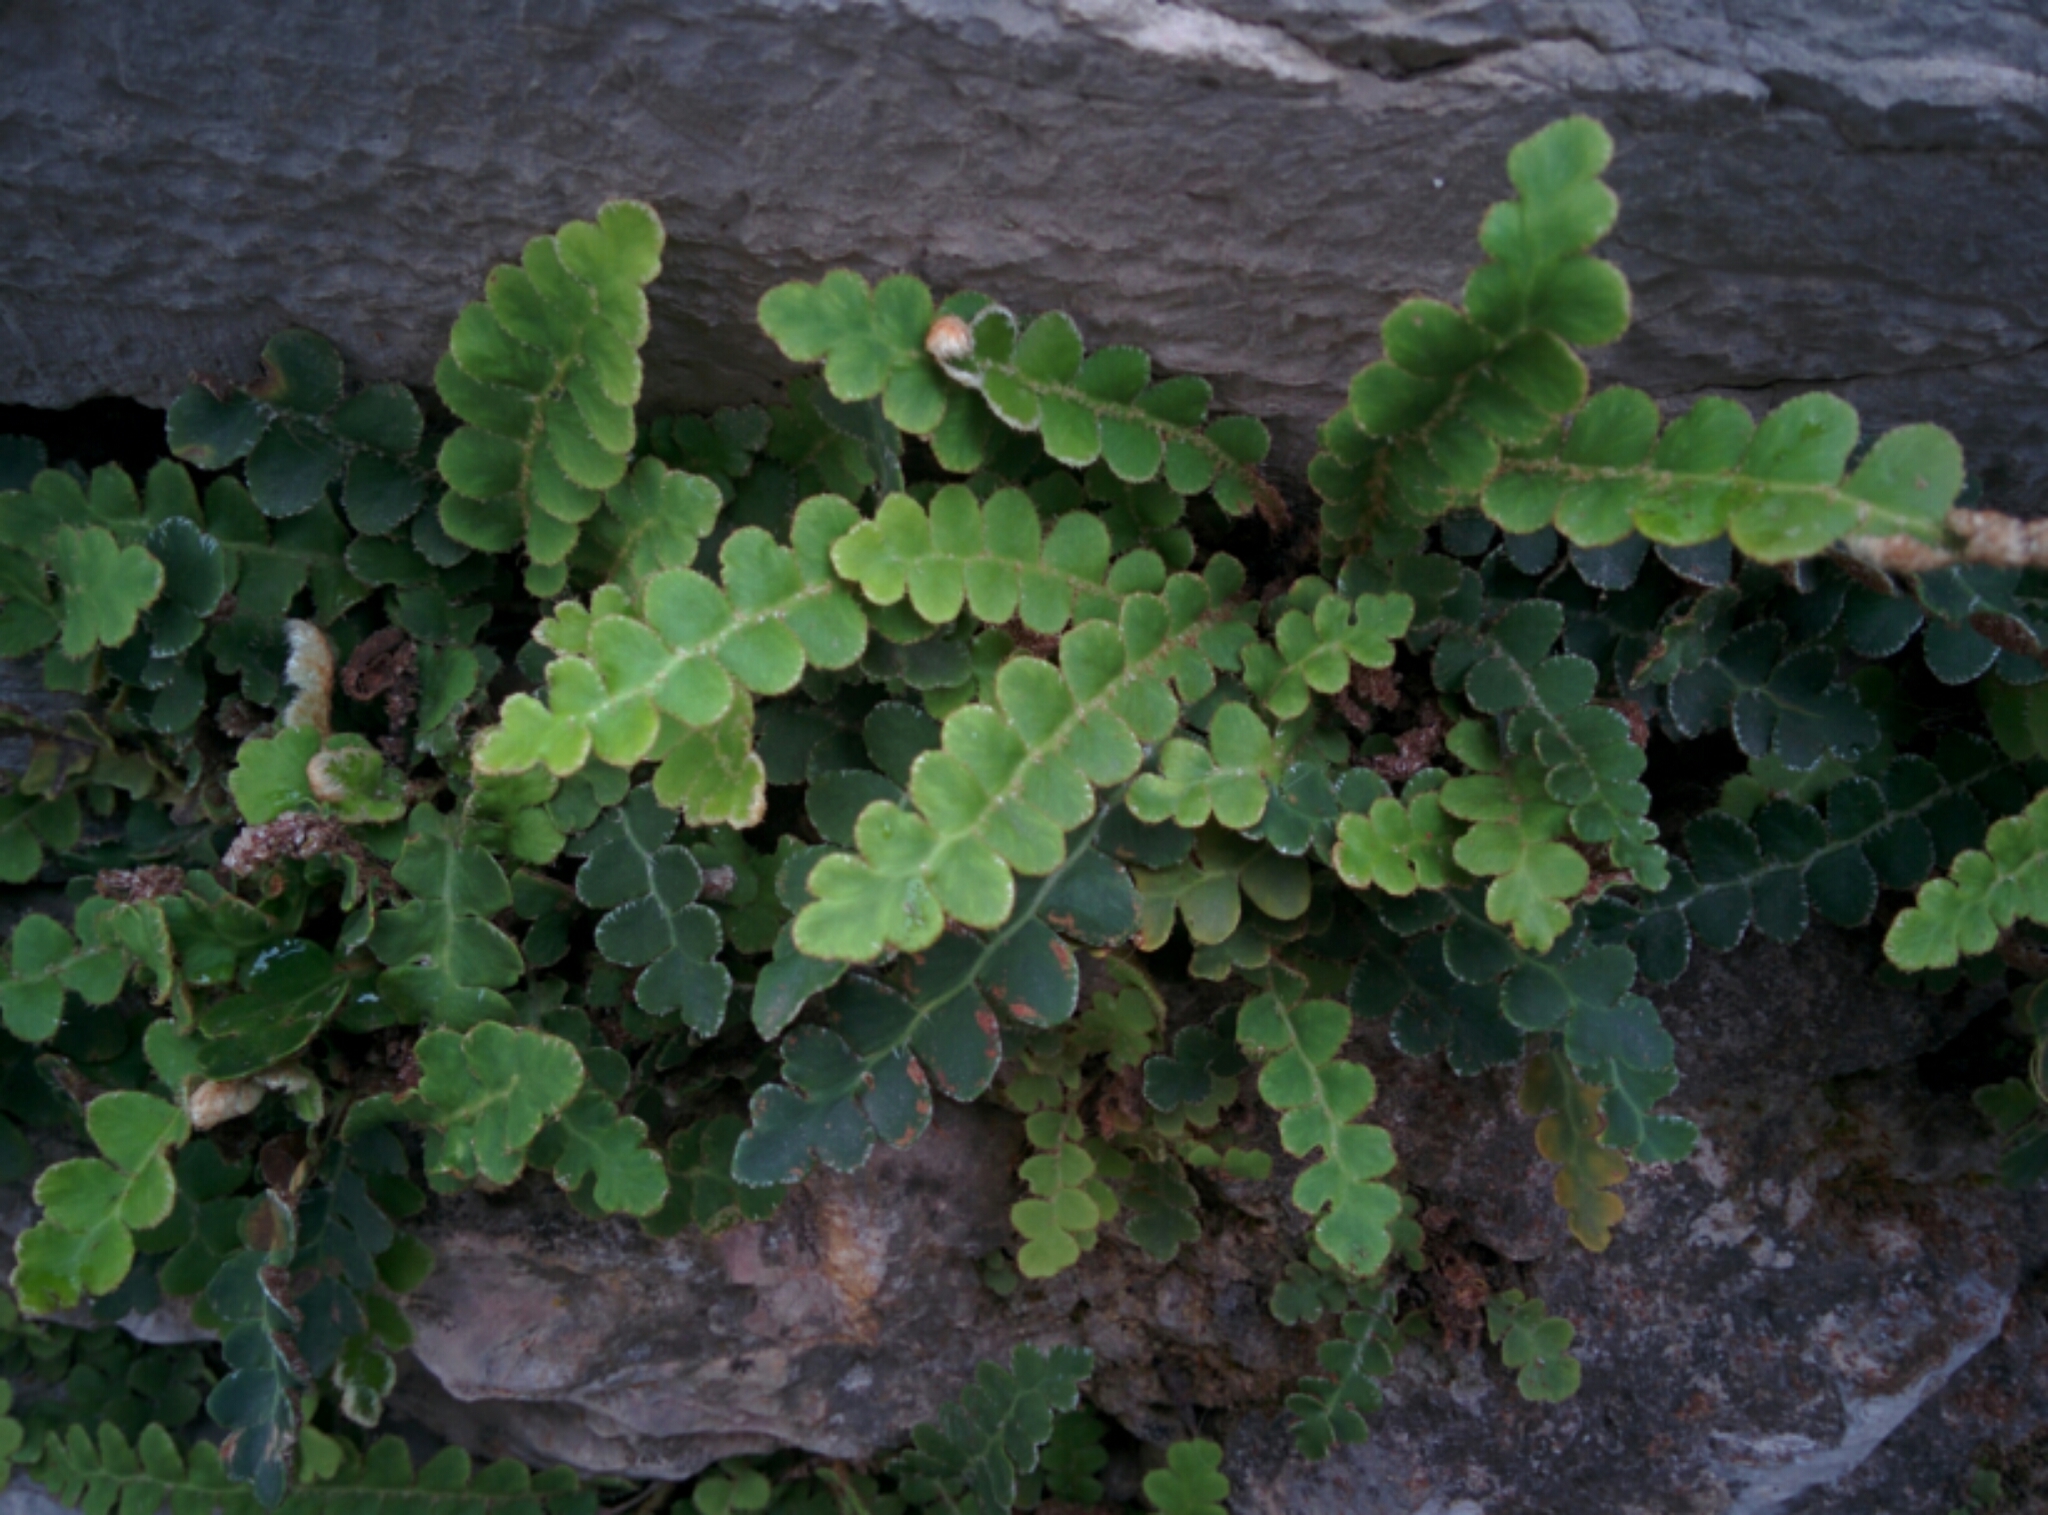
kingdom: Plantae
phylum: Tracheophyta
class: Polypodiopsida
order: Polypodiales
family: Aspleniaceae
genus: Asplenium
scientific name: Asplenium ceterach
